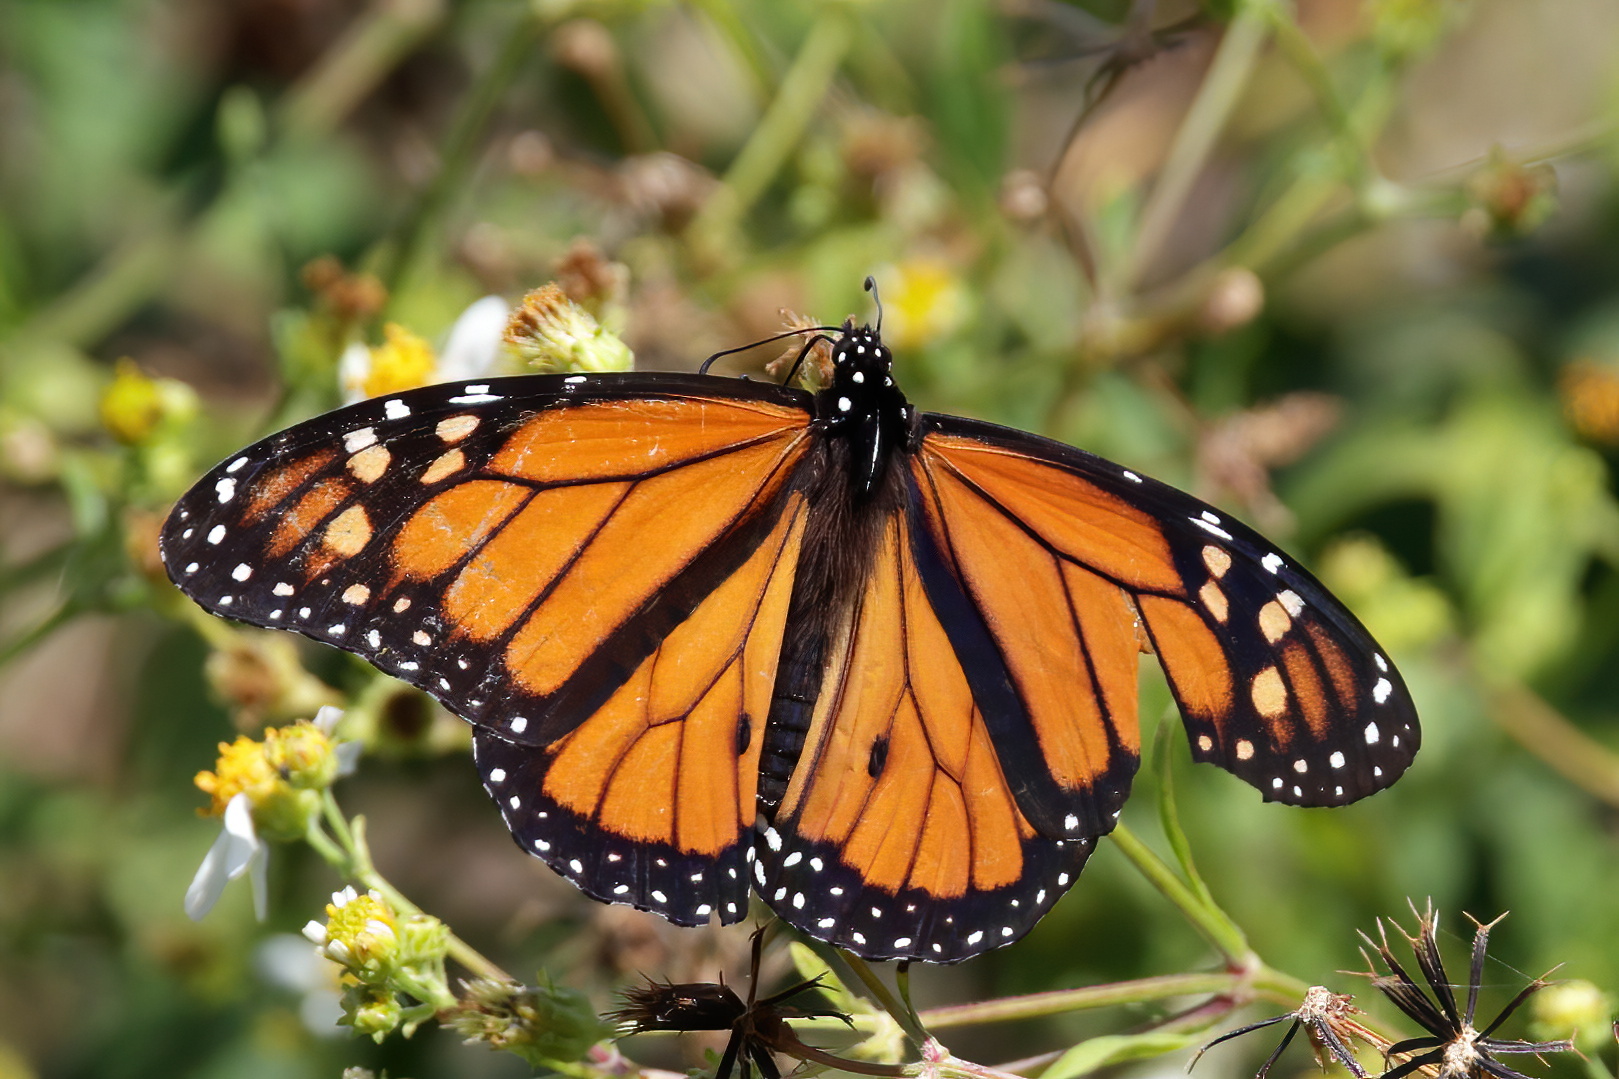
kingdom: Animalia
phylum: Arthropoda
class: Insecta
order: Lepidoptera
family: Nymphalidae
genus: Danaus
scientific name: Danaus plexippus
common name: Monarch
